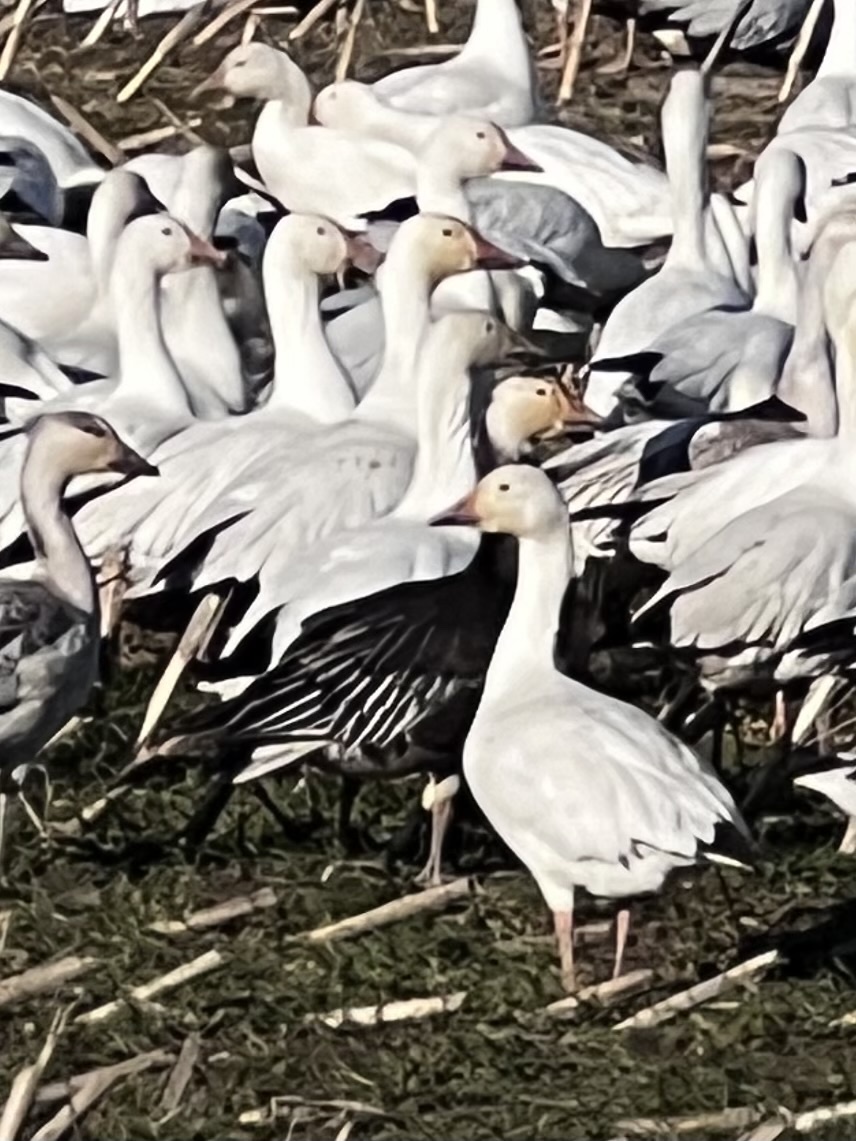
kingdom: Animalia
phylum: Chordata
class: Aves
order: Anseriformes
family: Anatidae
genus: Anser
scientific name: Anser caerulescens
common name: Snow goose
